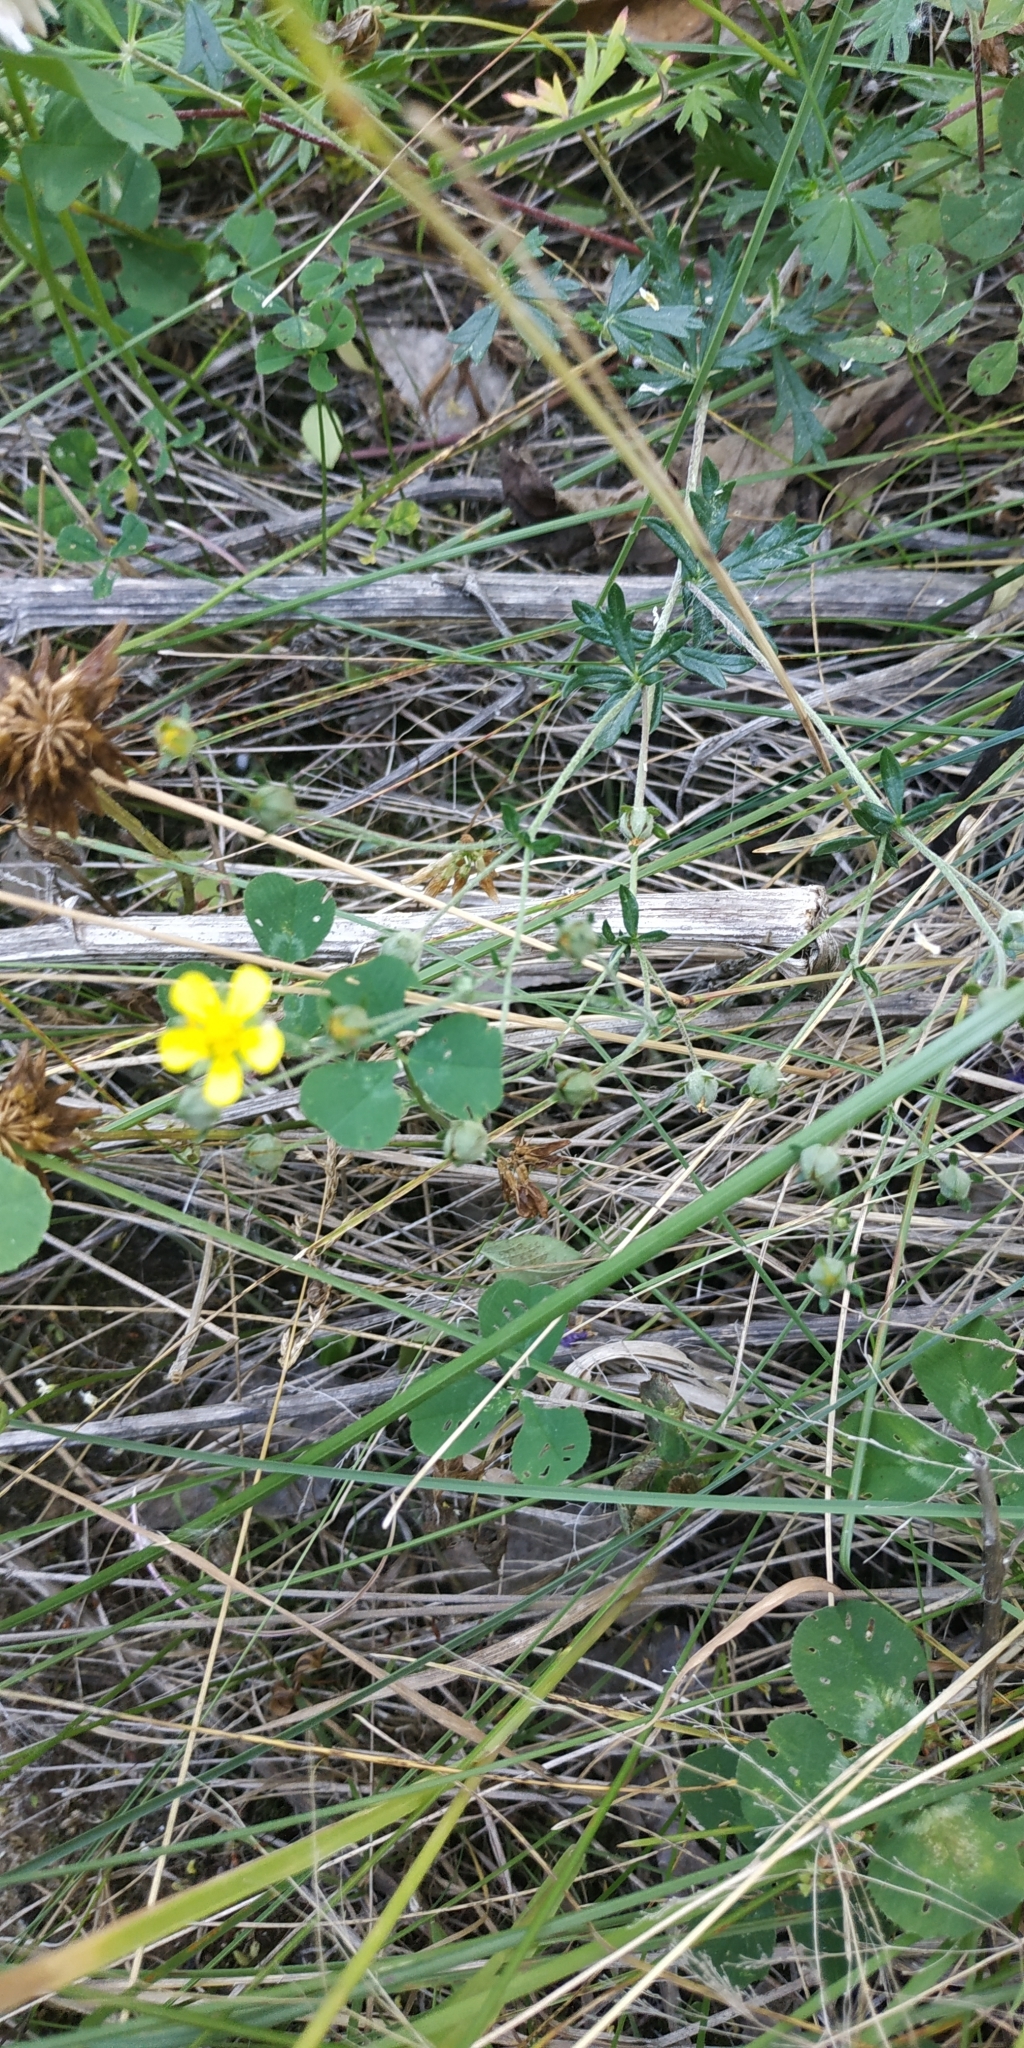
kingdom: Plantae
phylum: Tracheophyta
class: Magnoliopsida
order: Rosales
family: Rosaceae
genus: Potentilla
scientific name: Potentilla argentea
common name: Hoary cinquefoil
